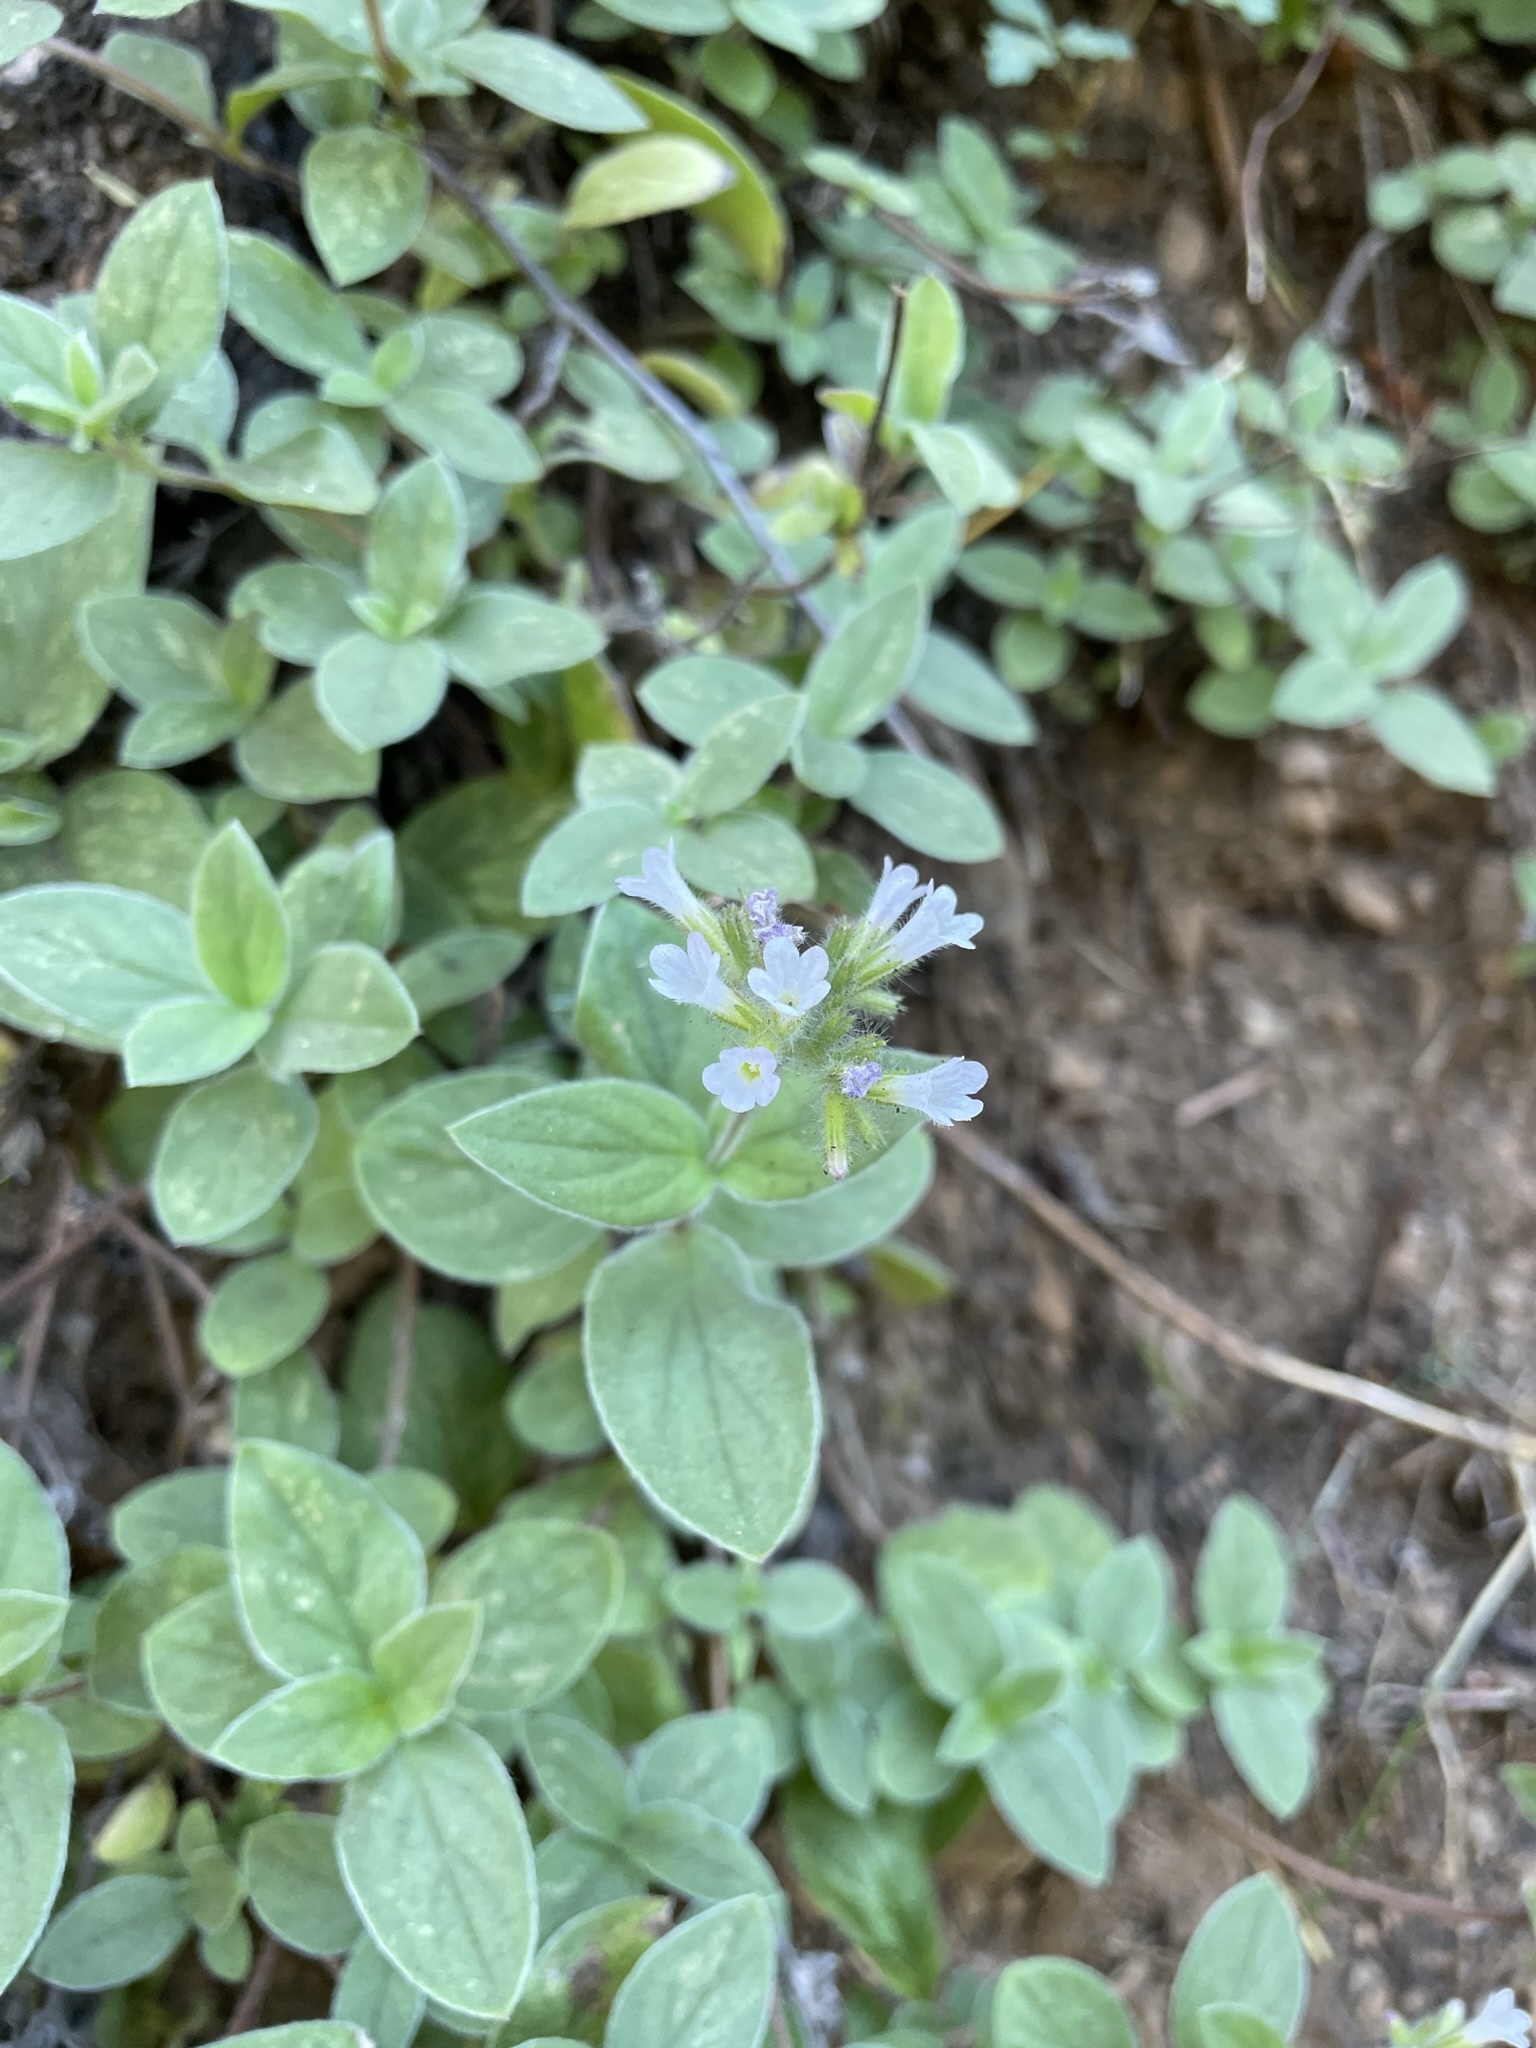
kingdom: Plantae
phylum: Tracheophyta
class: Magnoliopsida
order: Boraginales
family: Hydrophyllaceae
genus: Draperia
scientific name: Draperia systyla
